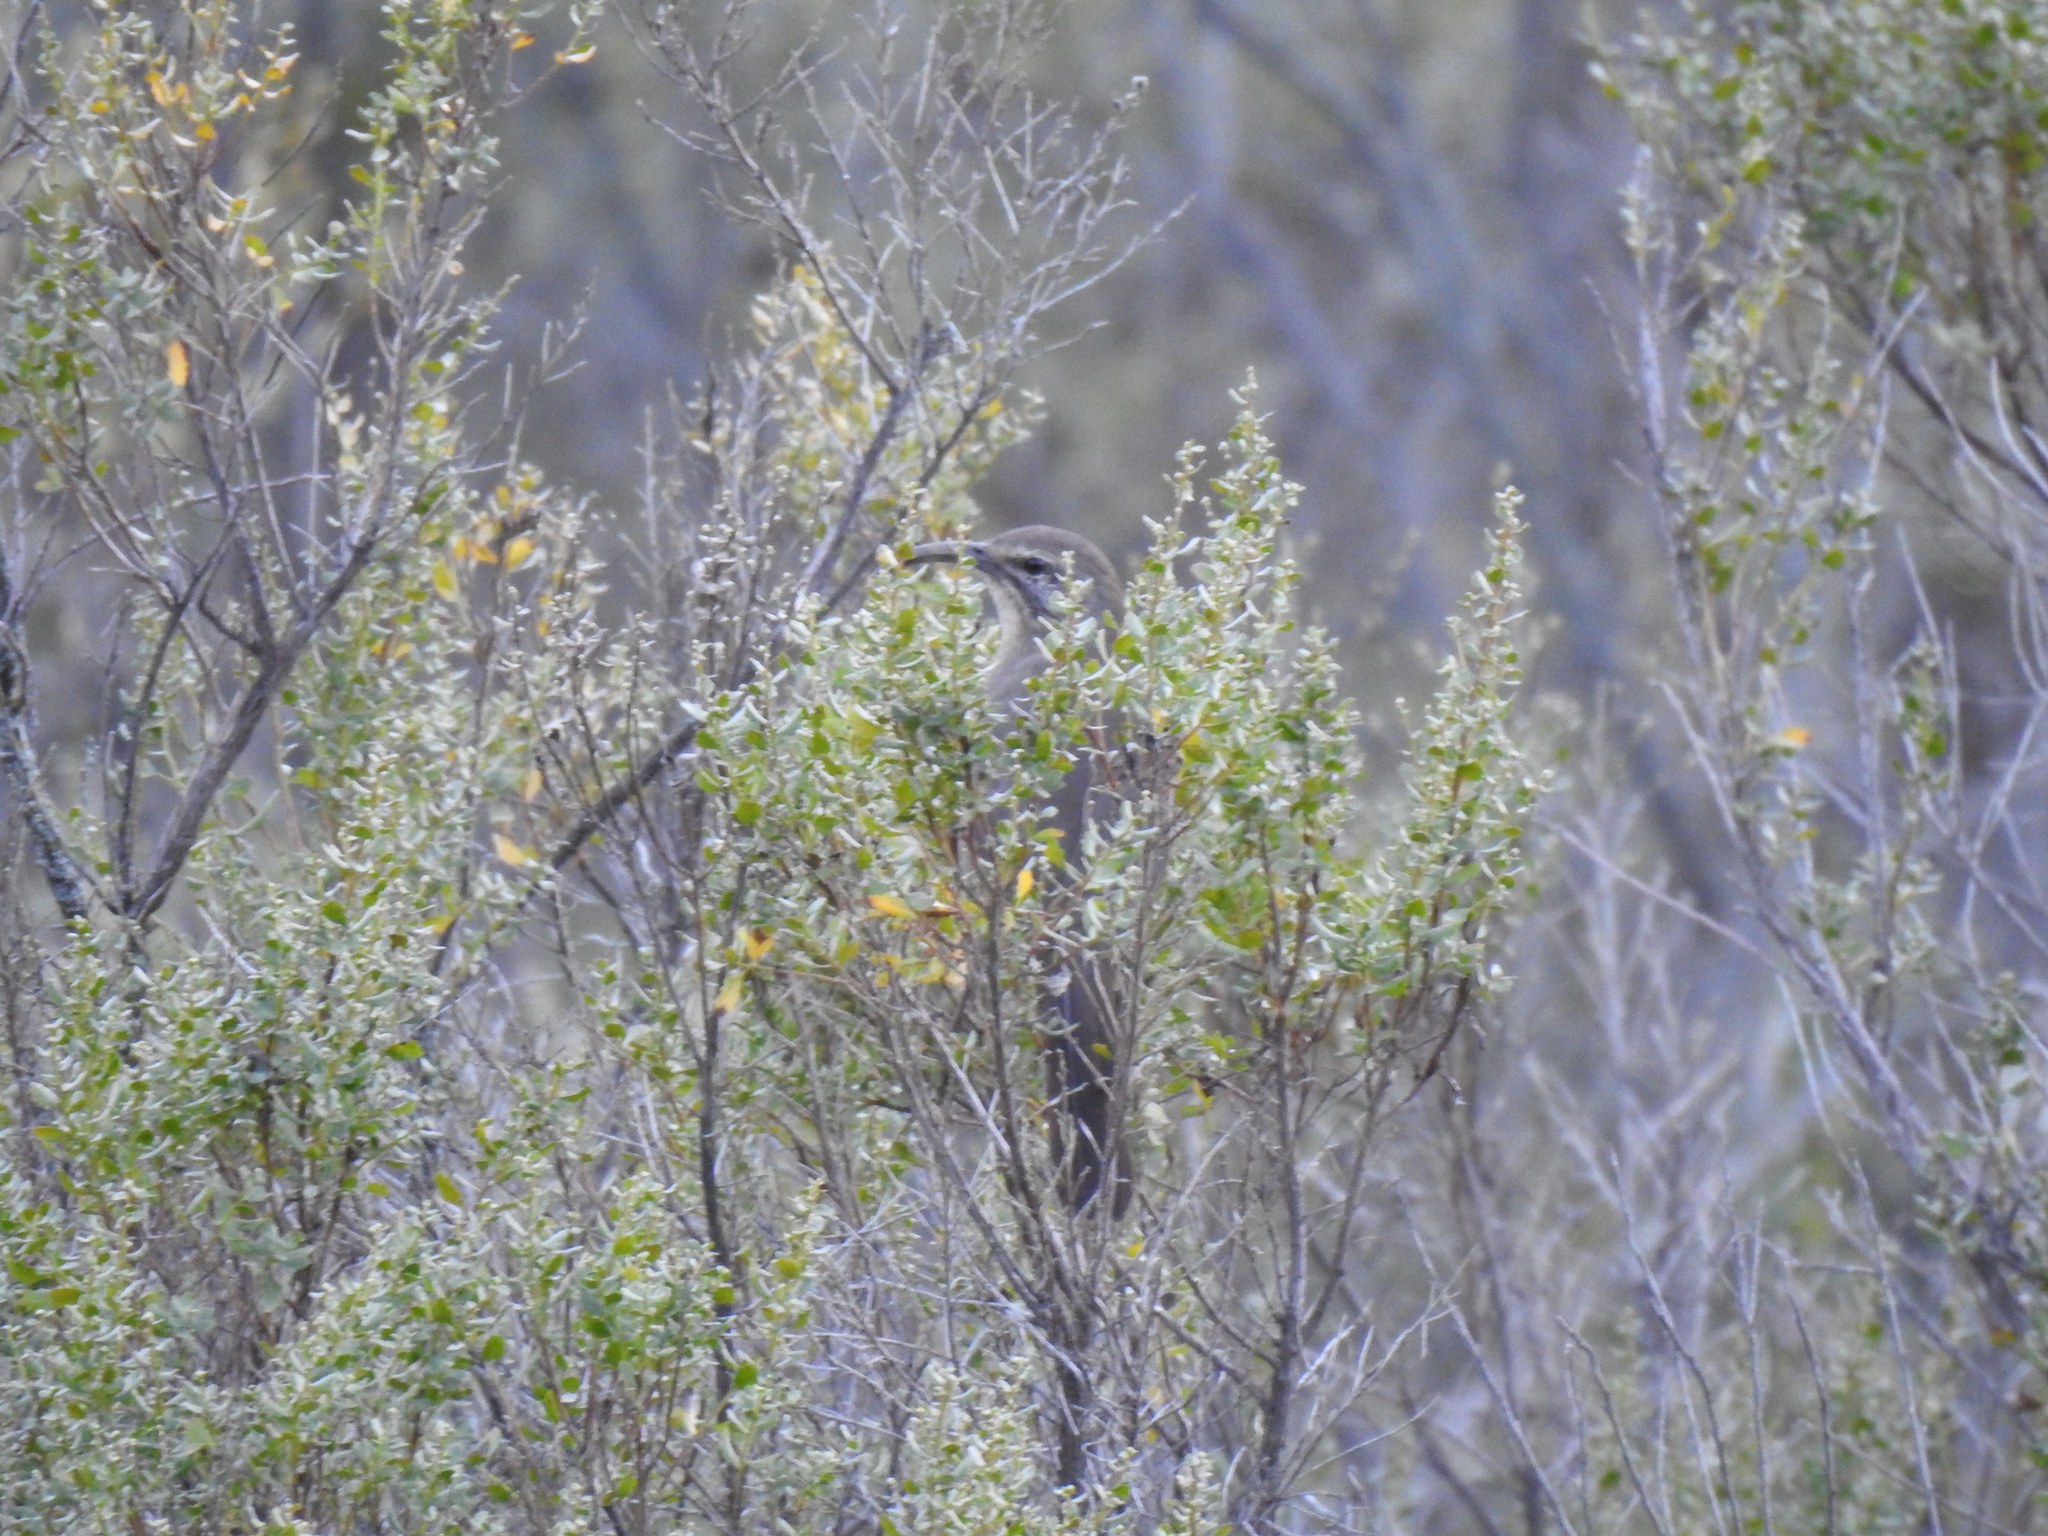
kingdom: Animalia
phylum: Chordata
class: Aves
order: Passeriformes
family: Mimidae
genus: Toxostoma
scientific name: Toxostoma redivivum
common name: California thrasher
